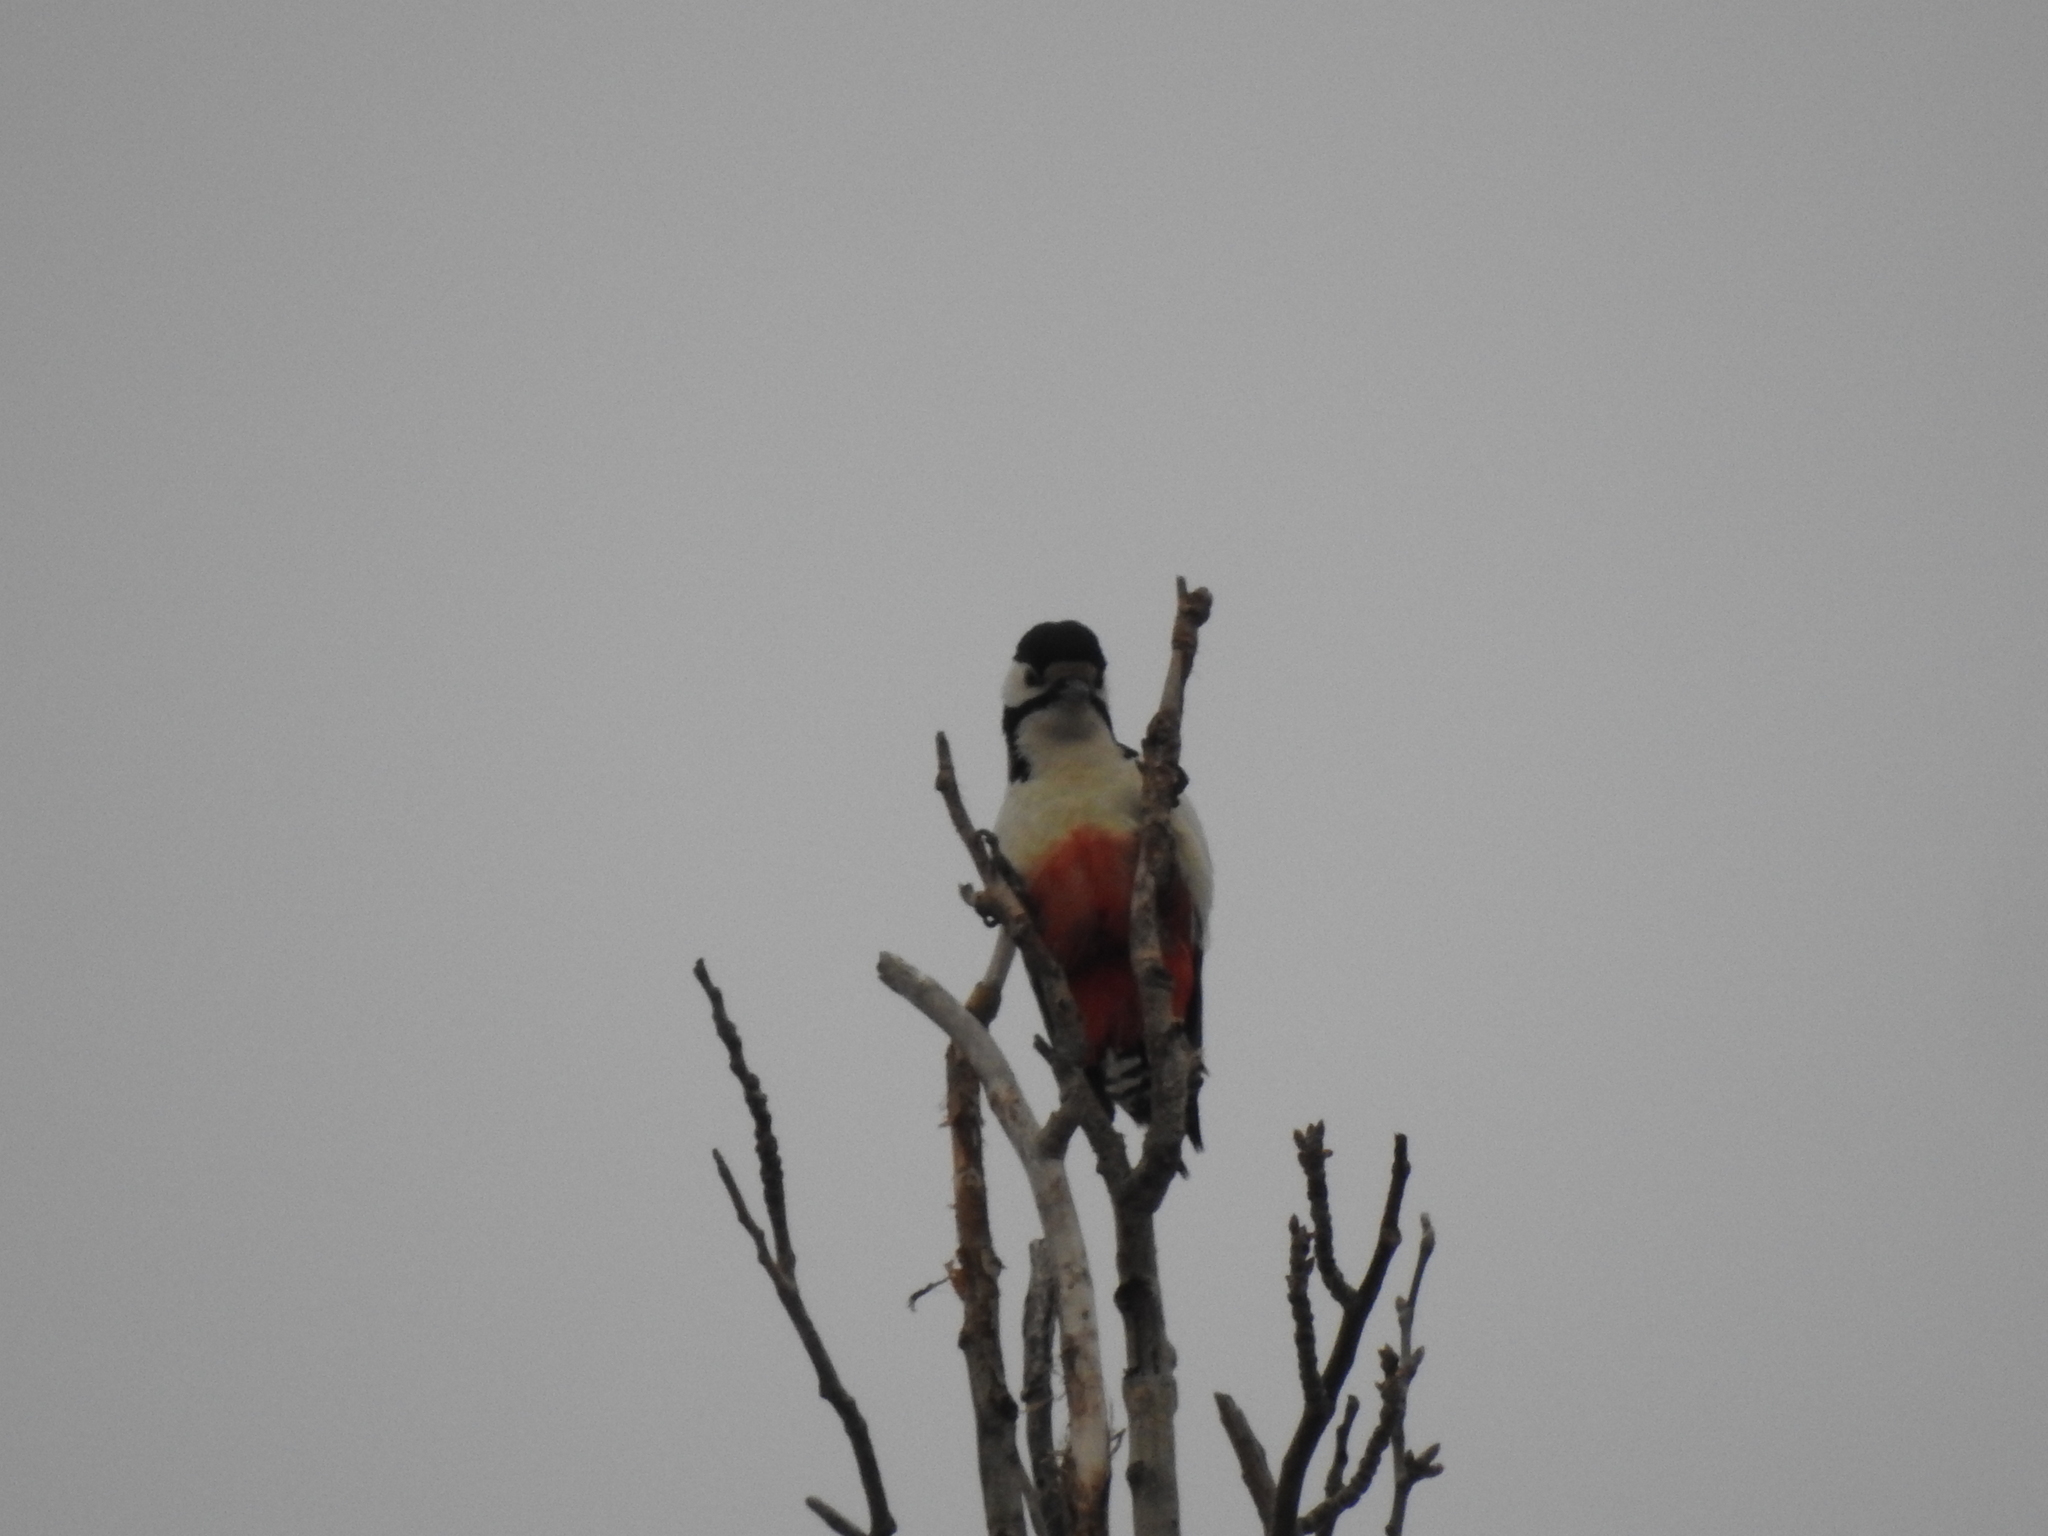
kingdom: Animalia
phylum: Chordata
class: Aves
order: Piciformes
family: Picidae
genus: Dendrocopos
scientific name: Dendrocopos major
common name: Great spotted woodpecker
